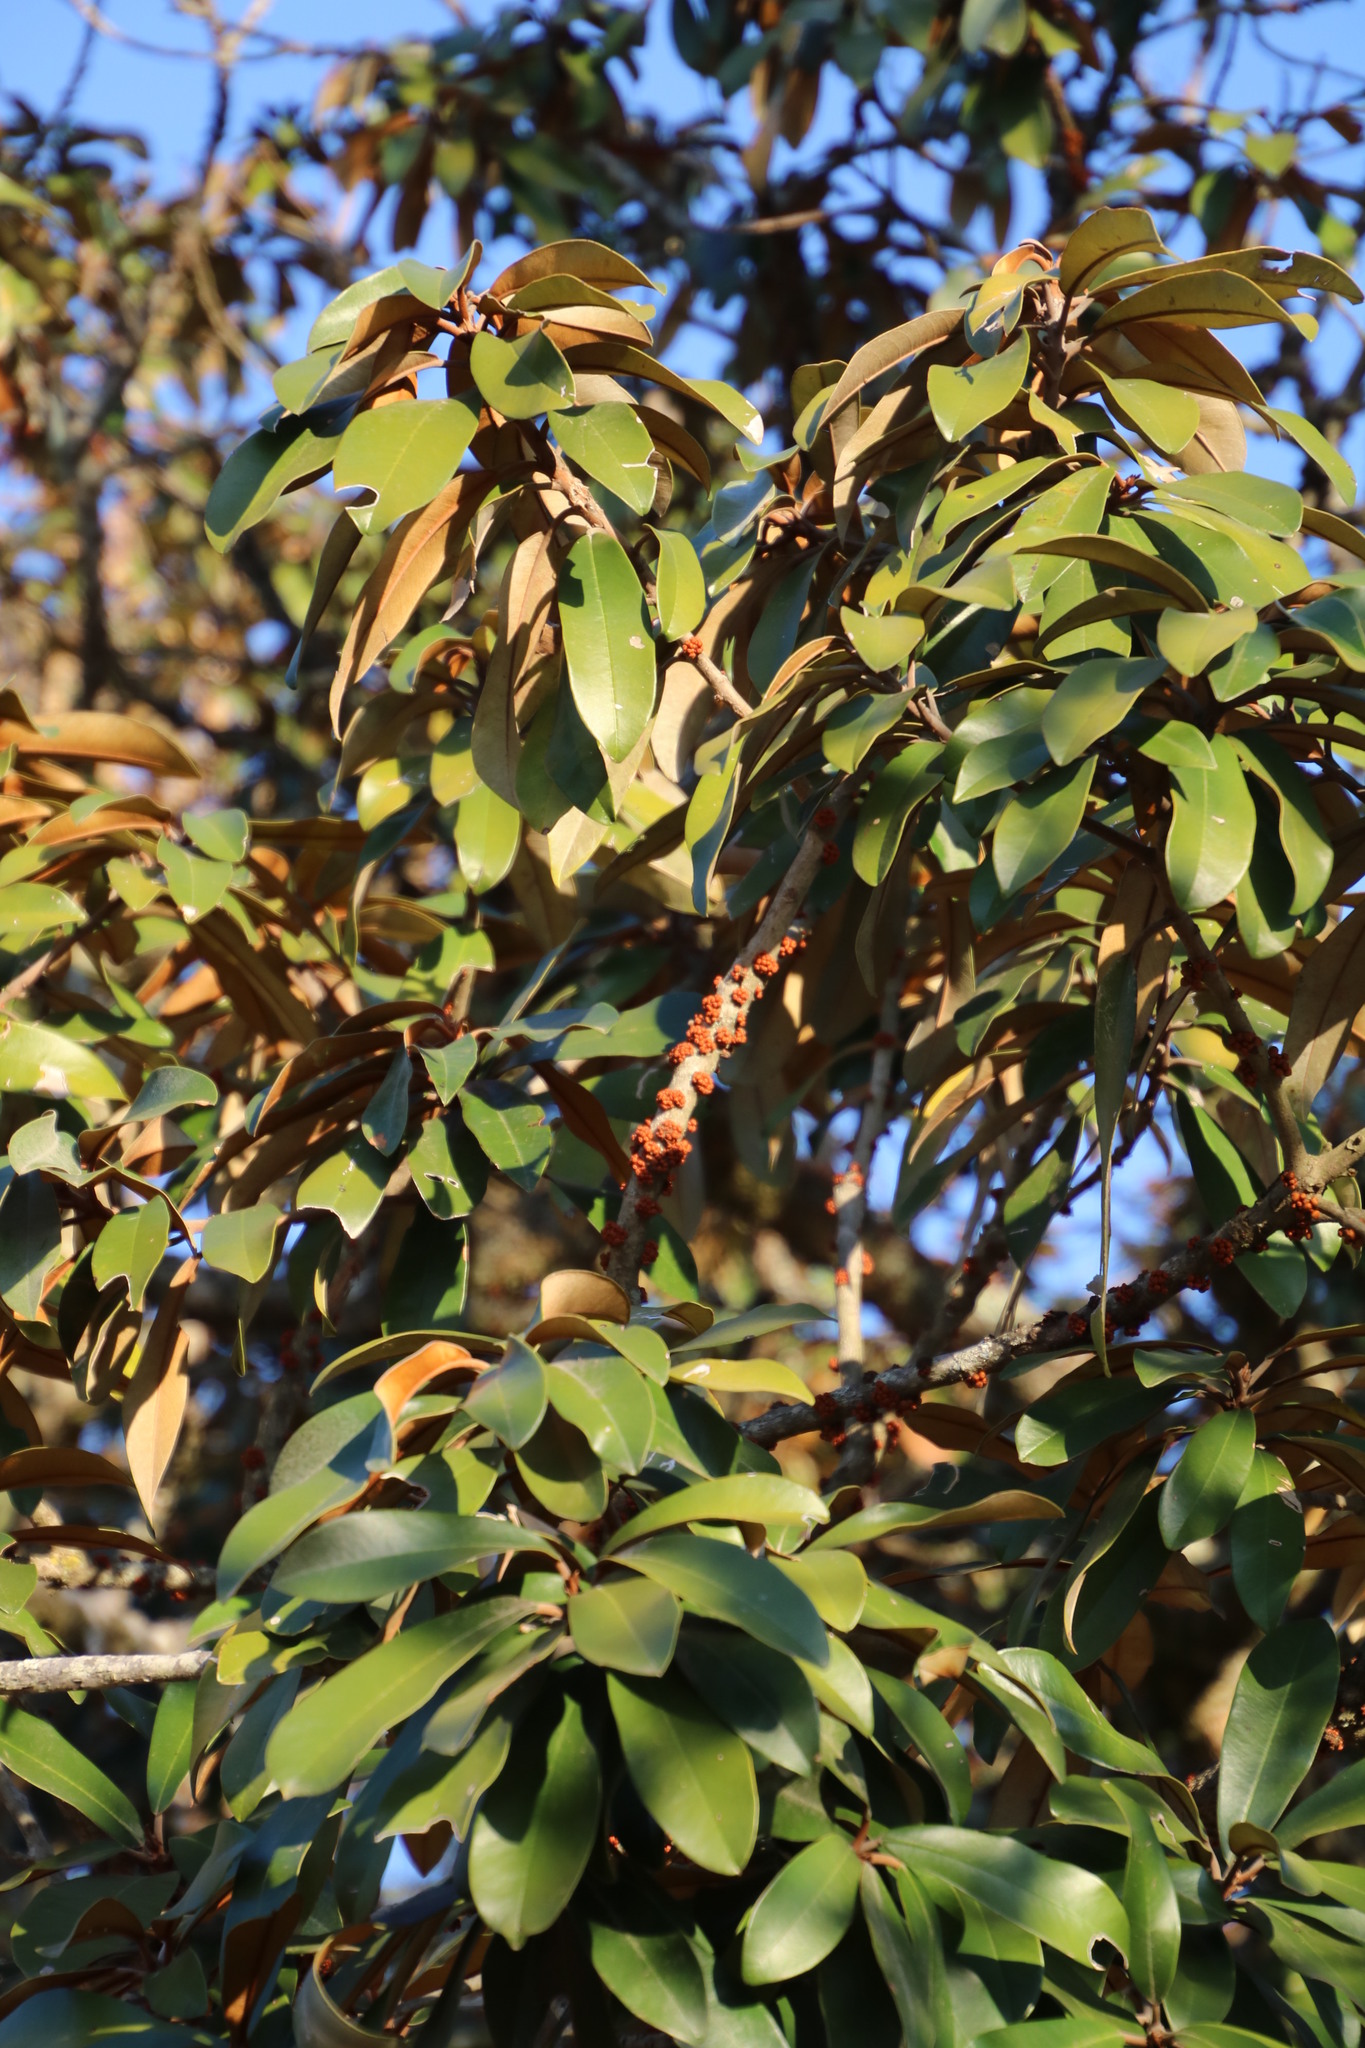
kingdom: Plantae
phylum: Tracheophyta
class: Magnoliopsida
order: Ericales
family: Sapotaceae
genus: Englerophytum
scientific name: Englerophytum magalismontanum
